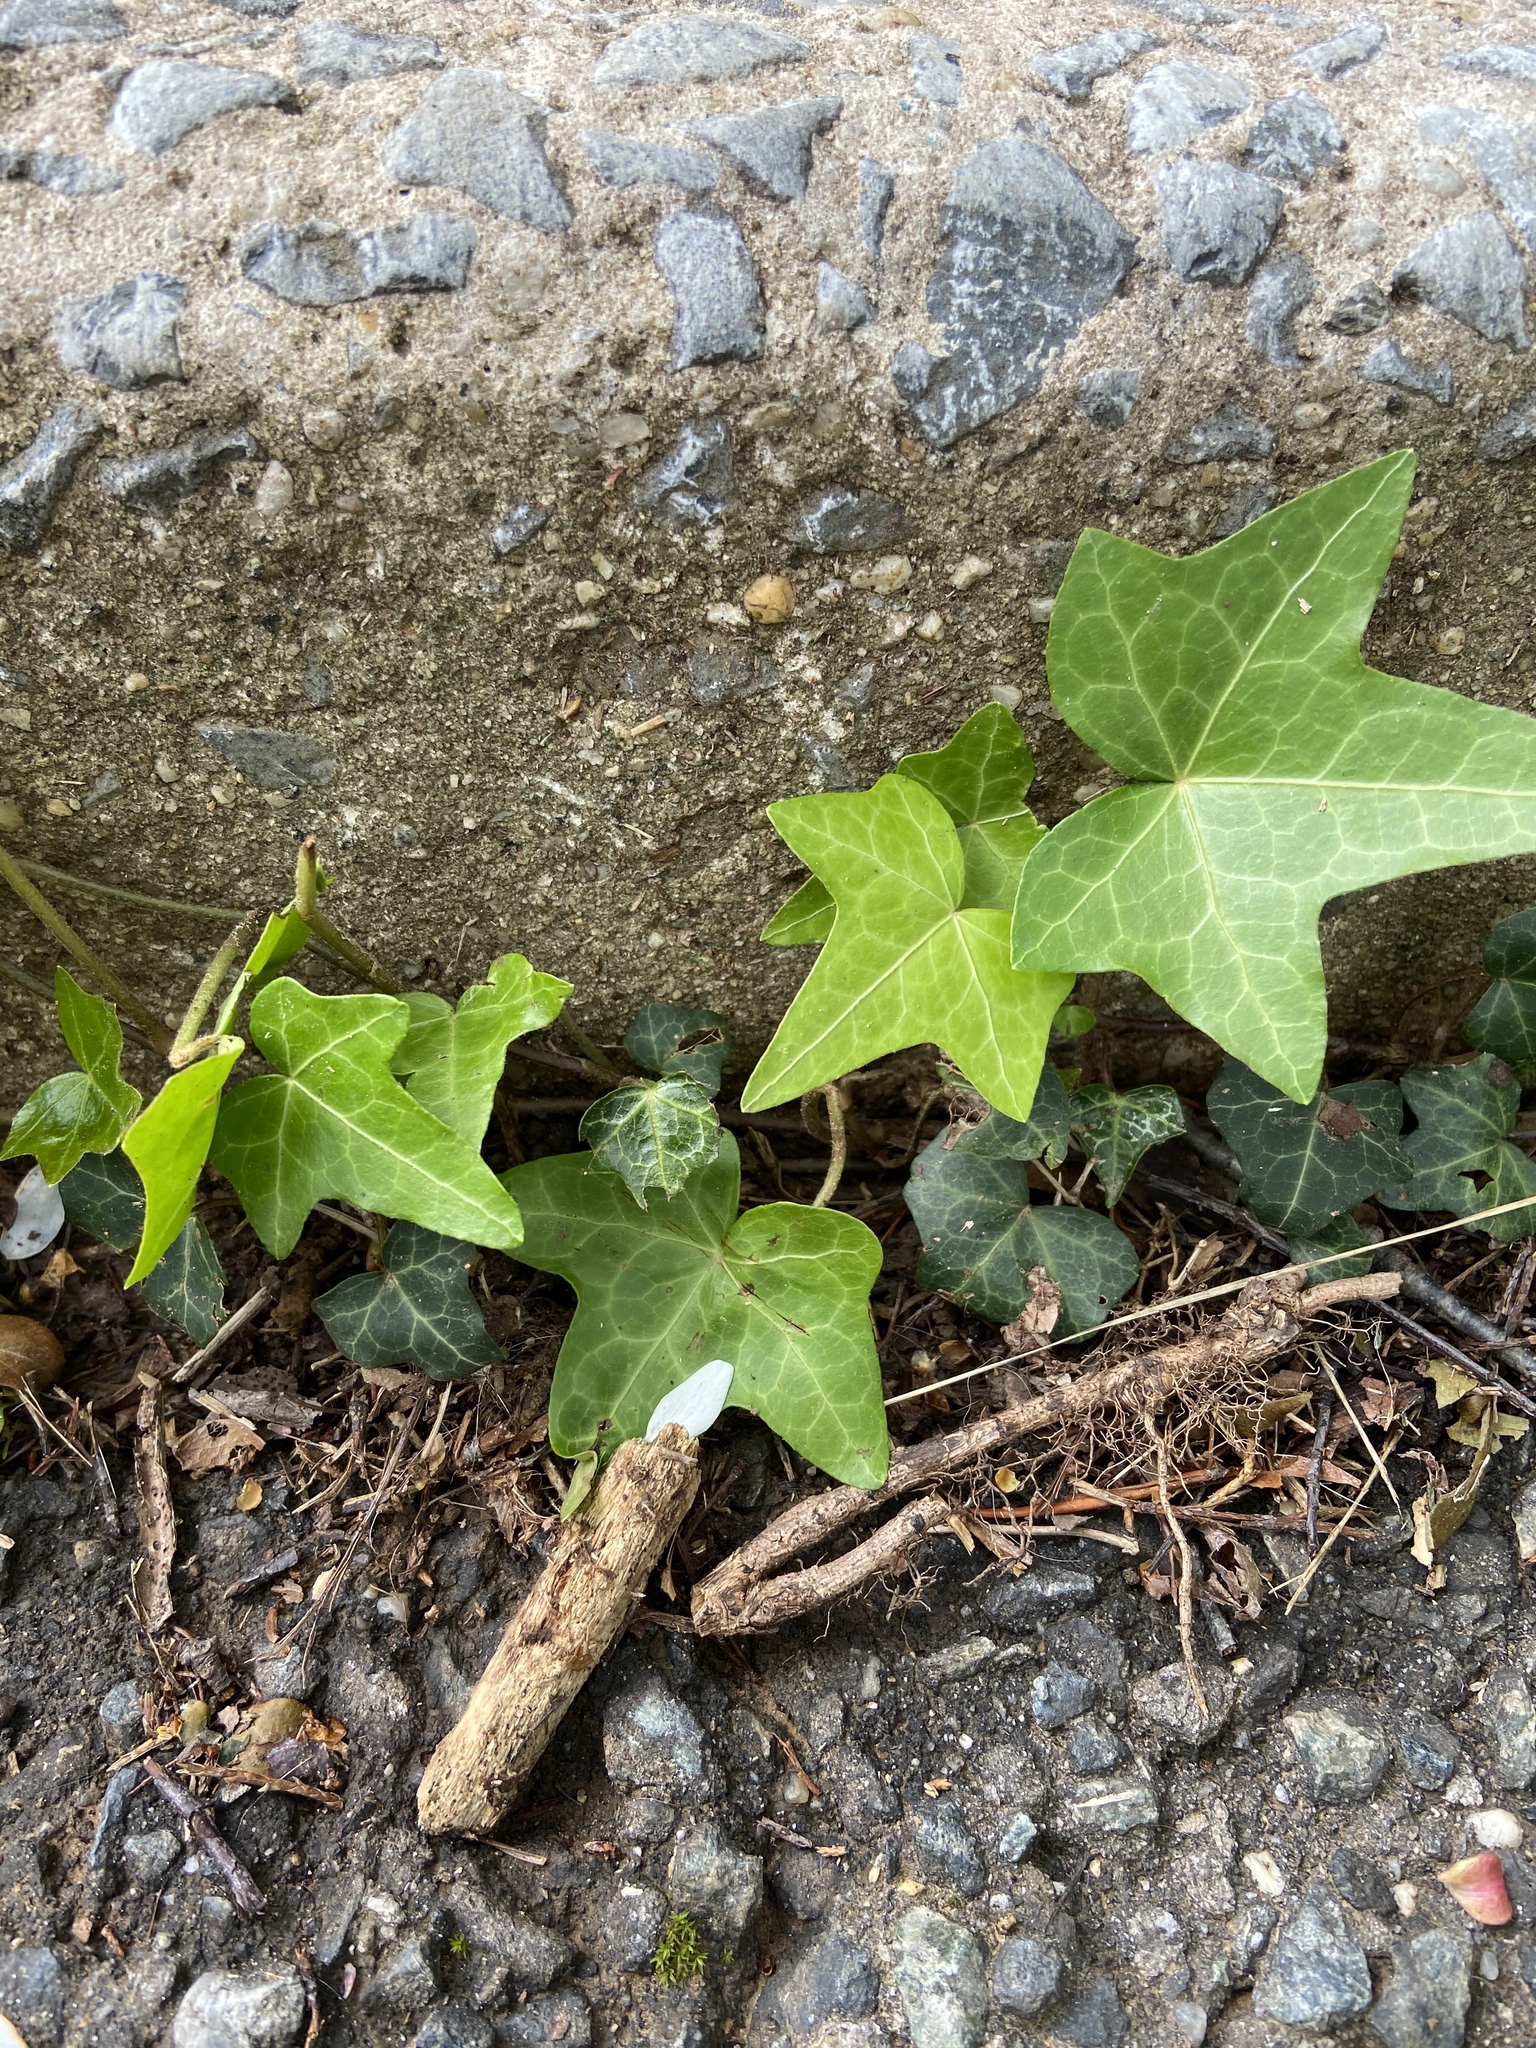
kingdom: Plantae
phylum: Tracheophyta
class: Magnoliopsida
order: Apiales
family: Araliaceae
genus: Hedera
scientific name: Hedera helix
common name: Ivy
